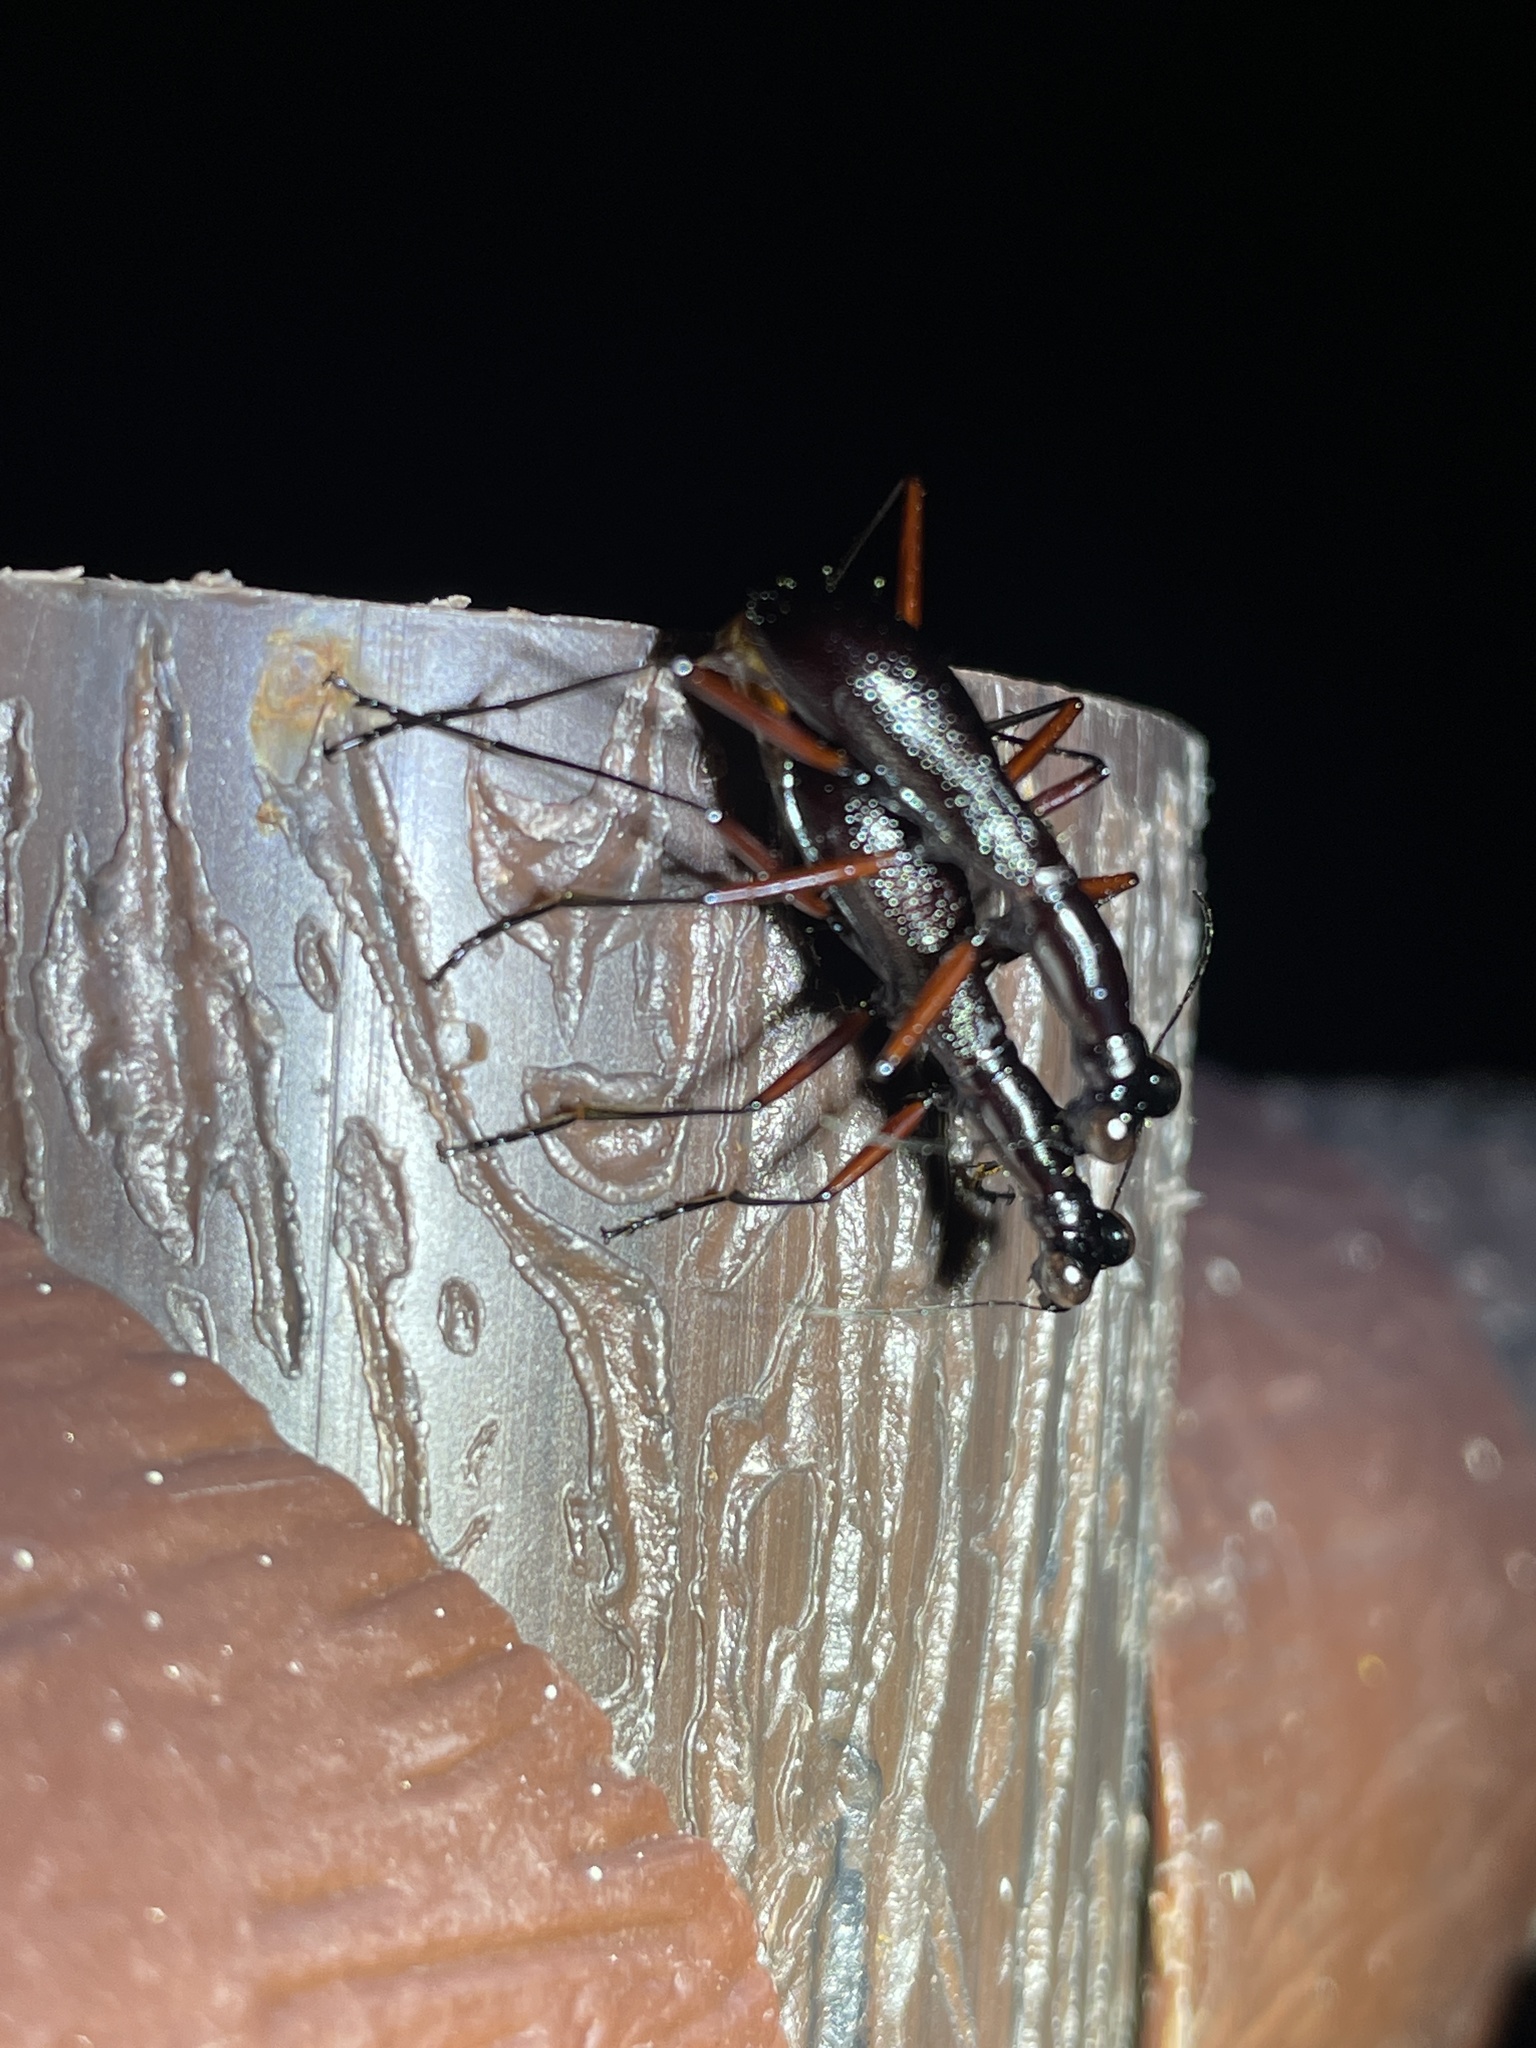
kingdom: Animalia
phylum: Arthropoda
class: Insecta
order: Coleoptera
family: Carabidae
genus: Tricondyla
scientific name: Tricondyla pulchripes
